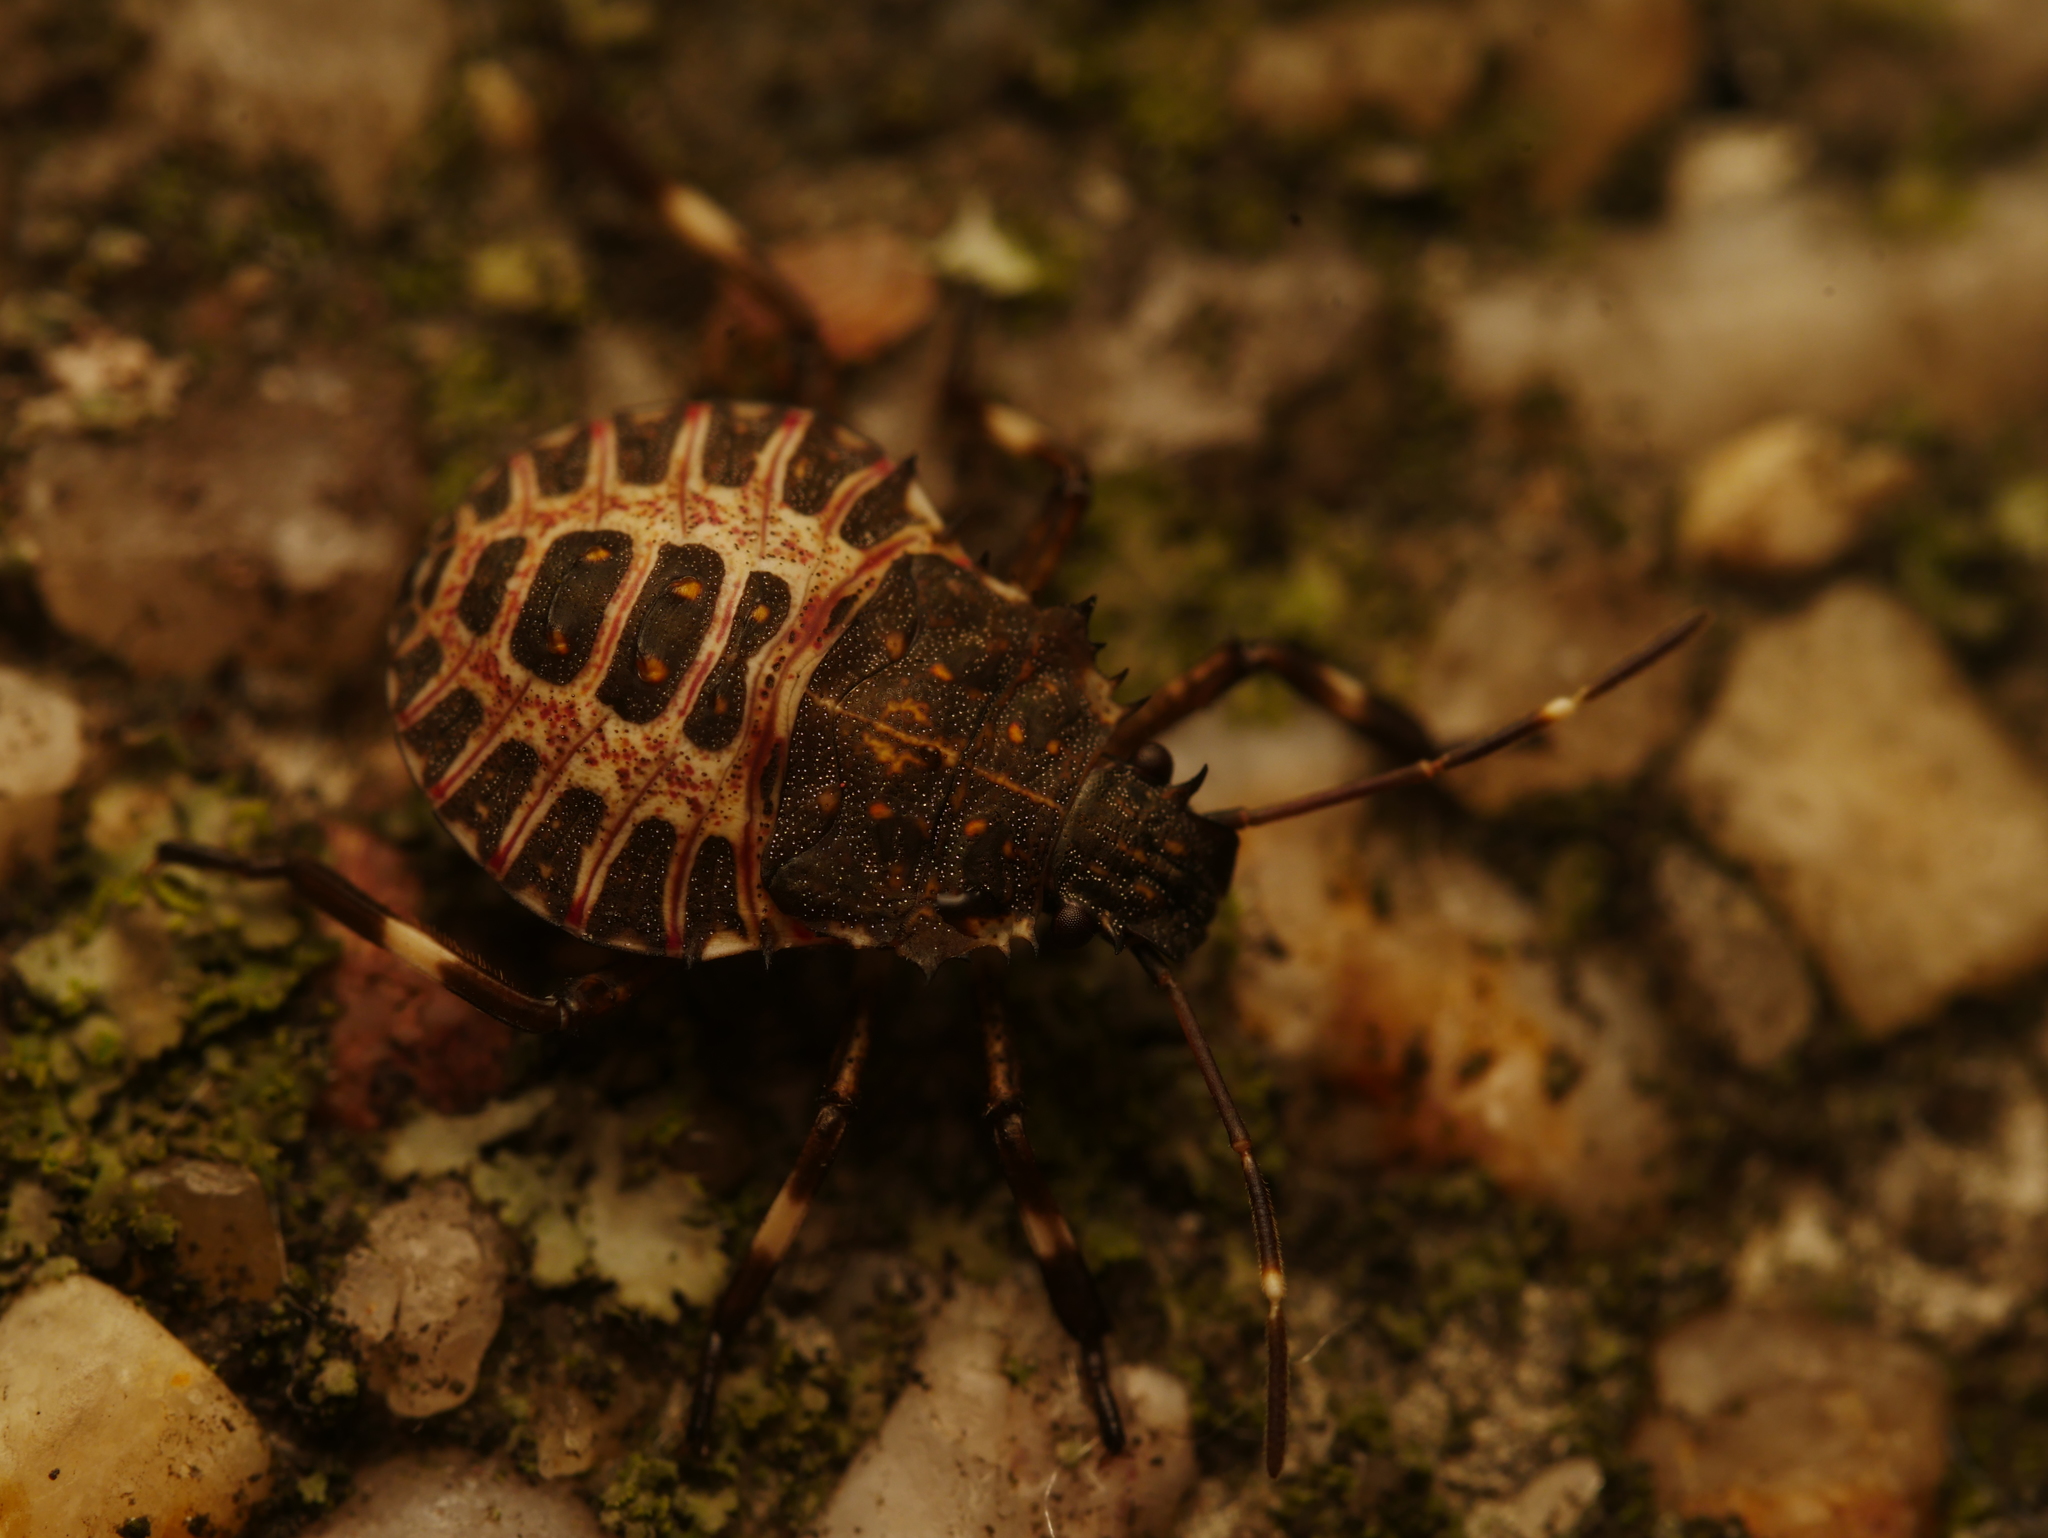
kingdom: Animalia
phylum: Arthropoda
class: Insecta
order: Hemiptera
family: Pentatomidae
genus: Halyomorpha
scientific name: Halyomorpha halys
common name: Brown marmorated stink bug
